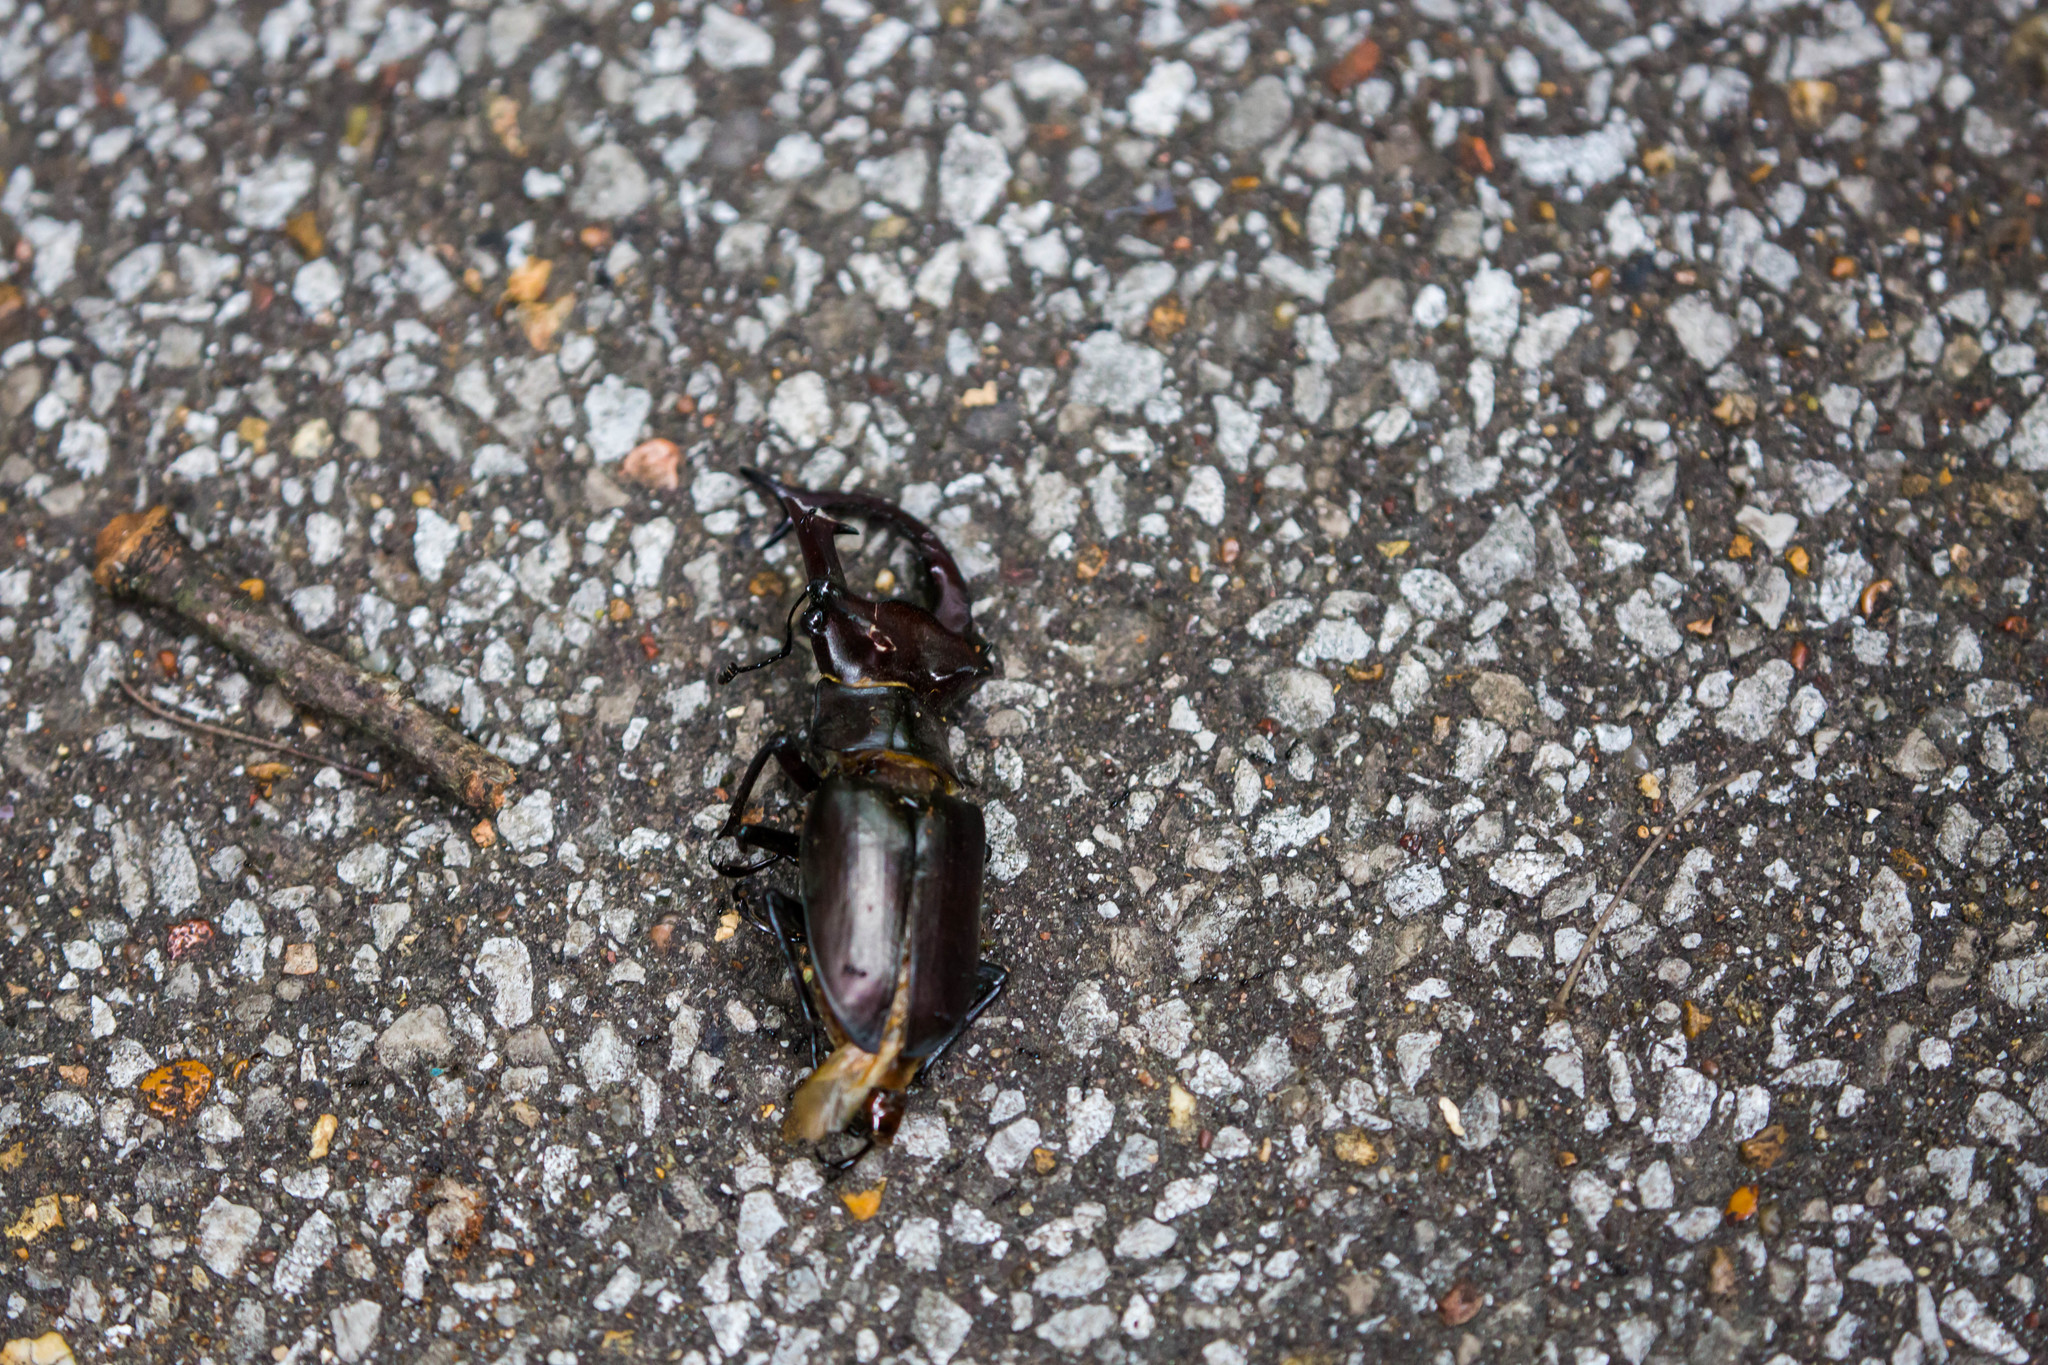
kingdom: Animalia
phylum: Arthropoda
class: Insecta
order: Coleoptera
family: Lucanidae
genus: Lucanus
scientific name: Lucanus elaphus
